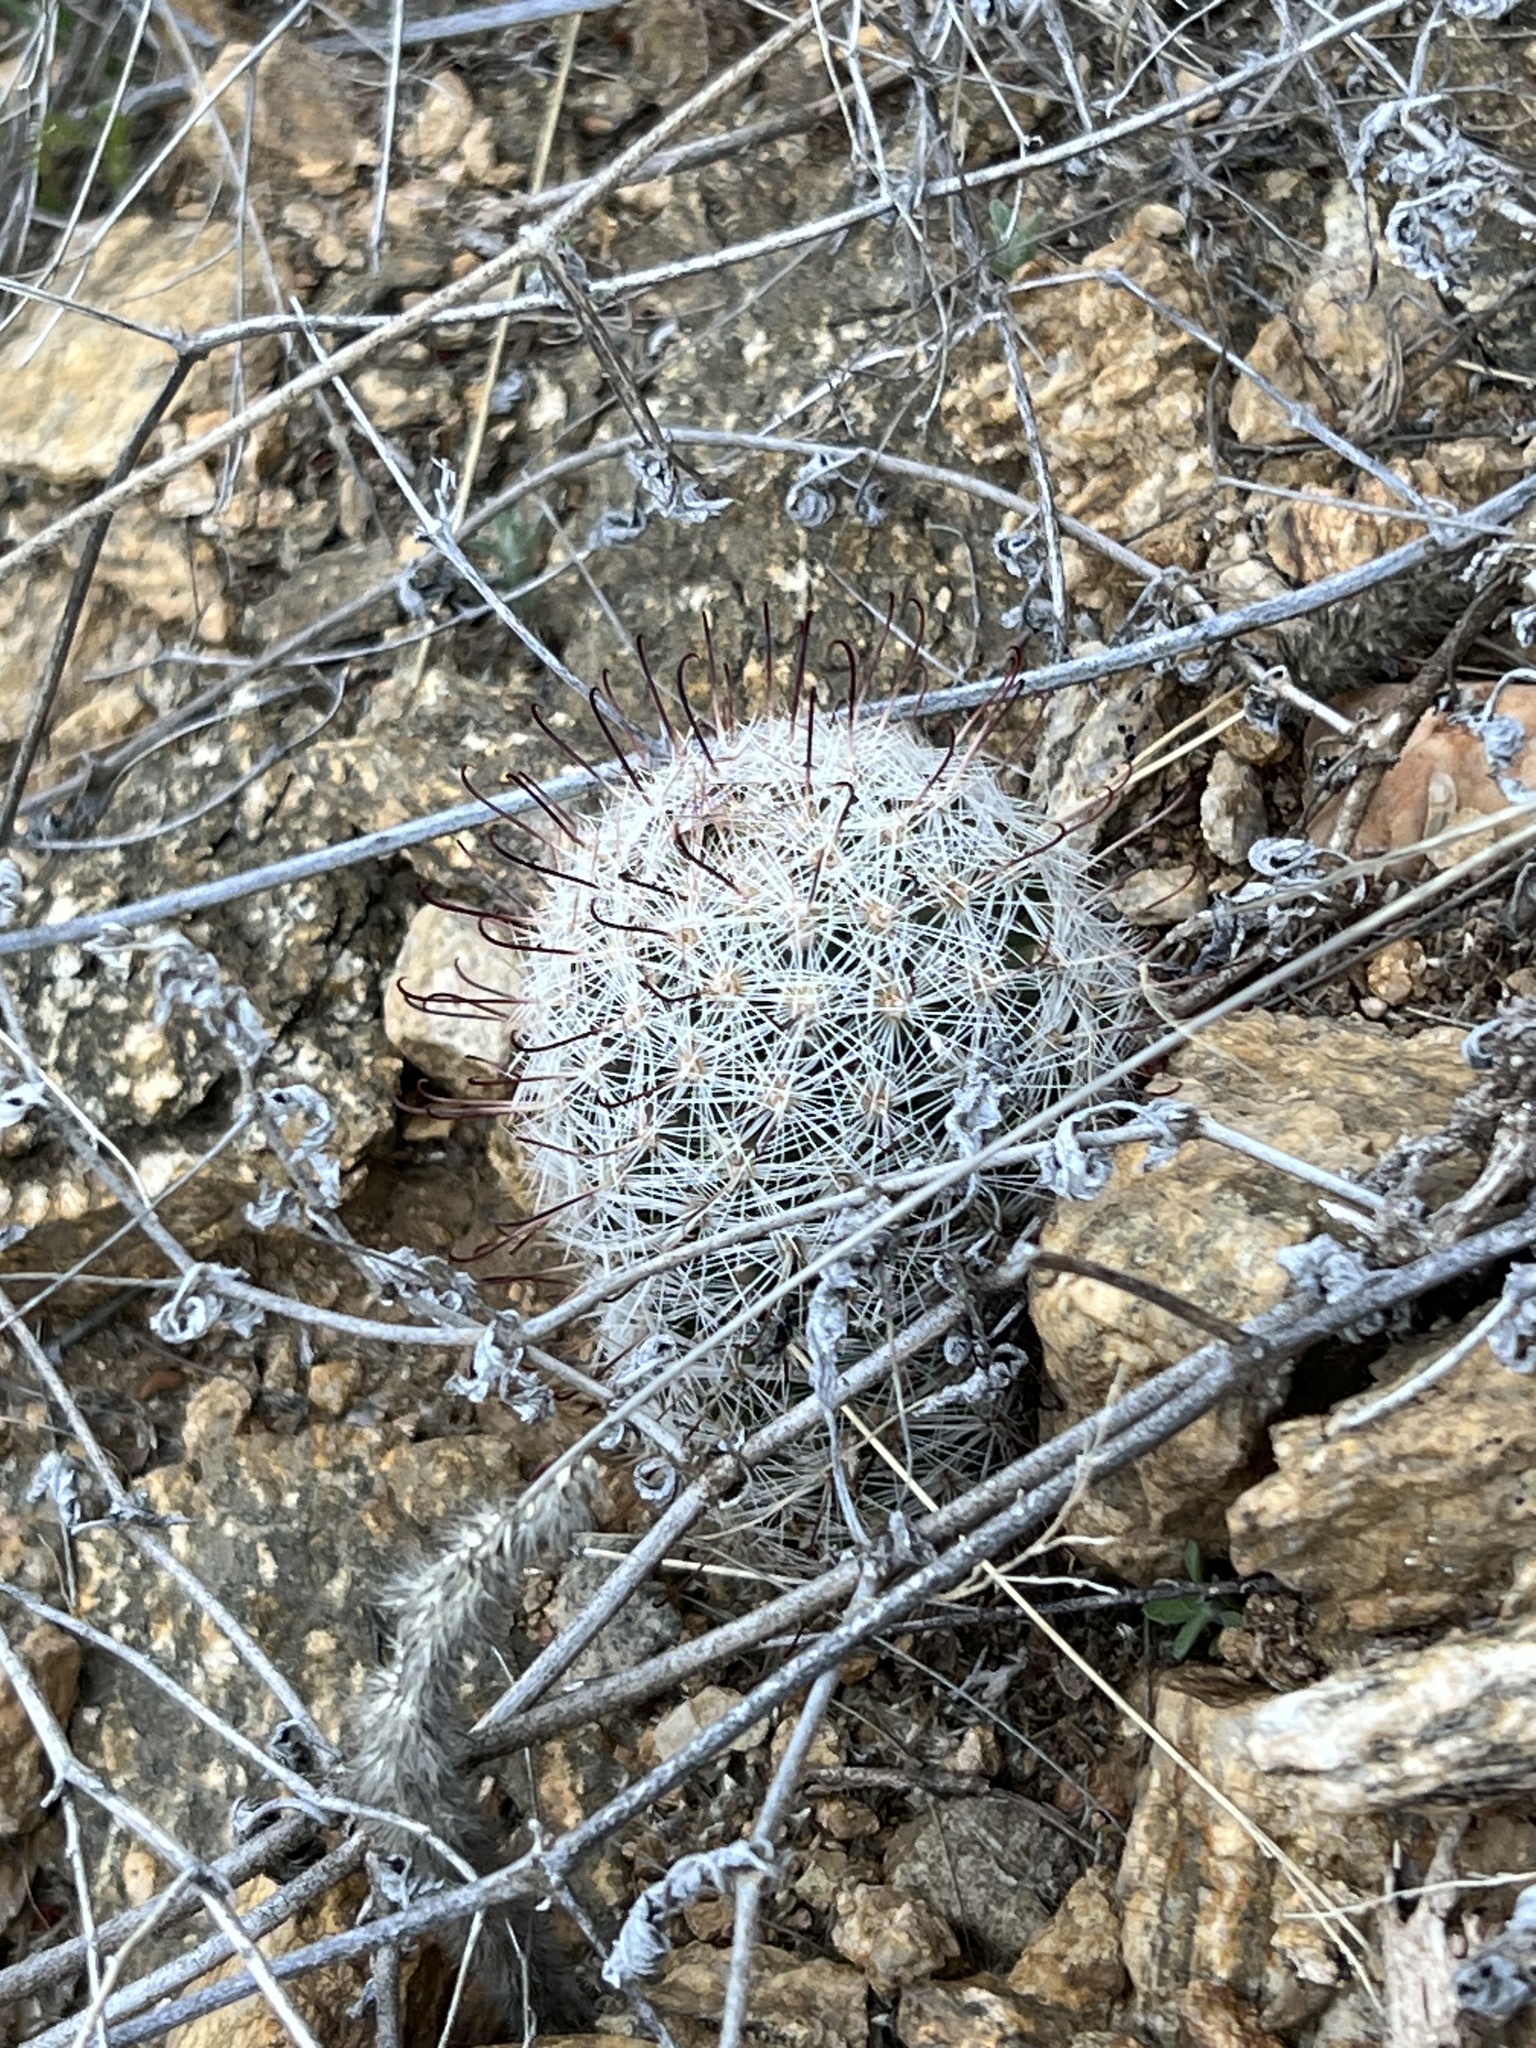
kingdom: Plantae
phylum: Tracheophyta
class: Magnoliopsida
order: Caryophyllales
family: Cactaceae
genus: Cochemiea
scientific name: Cochemiea grahamii
